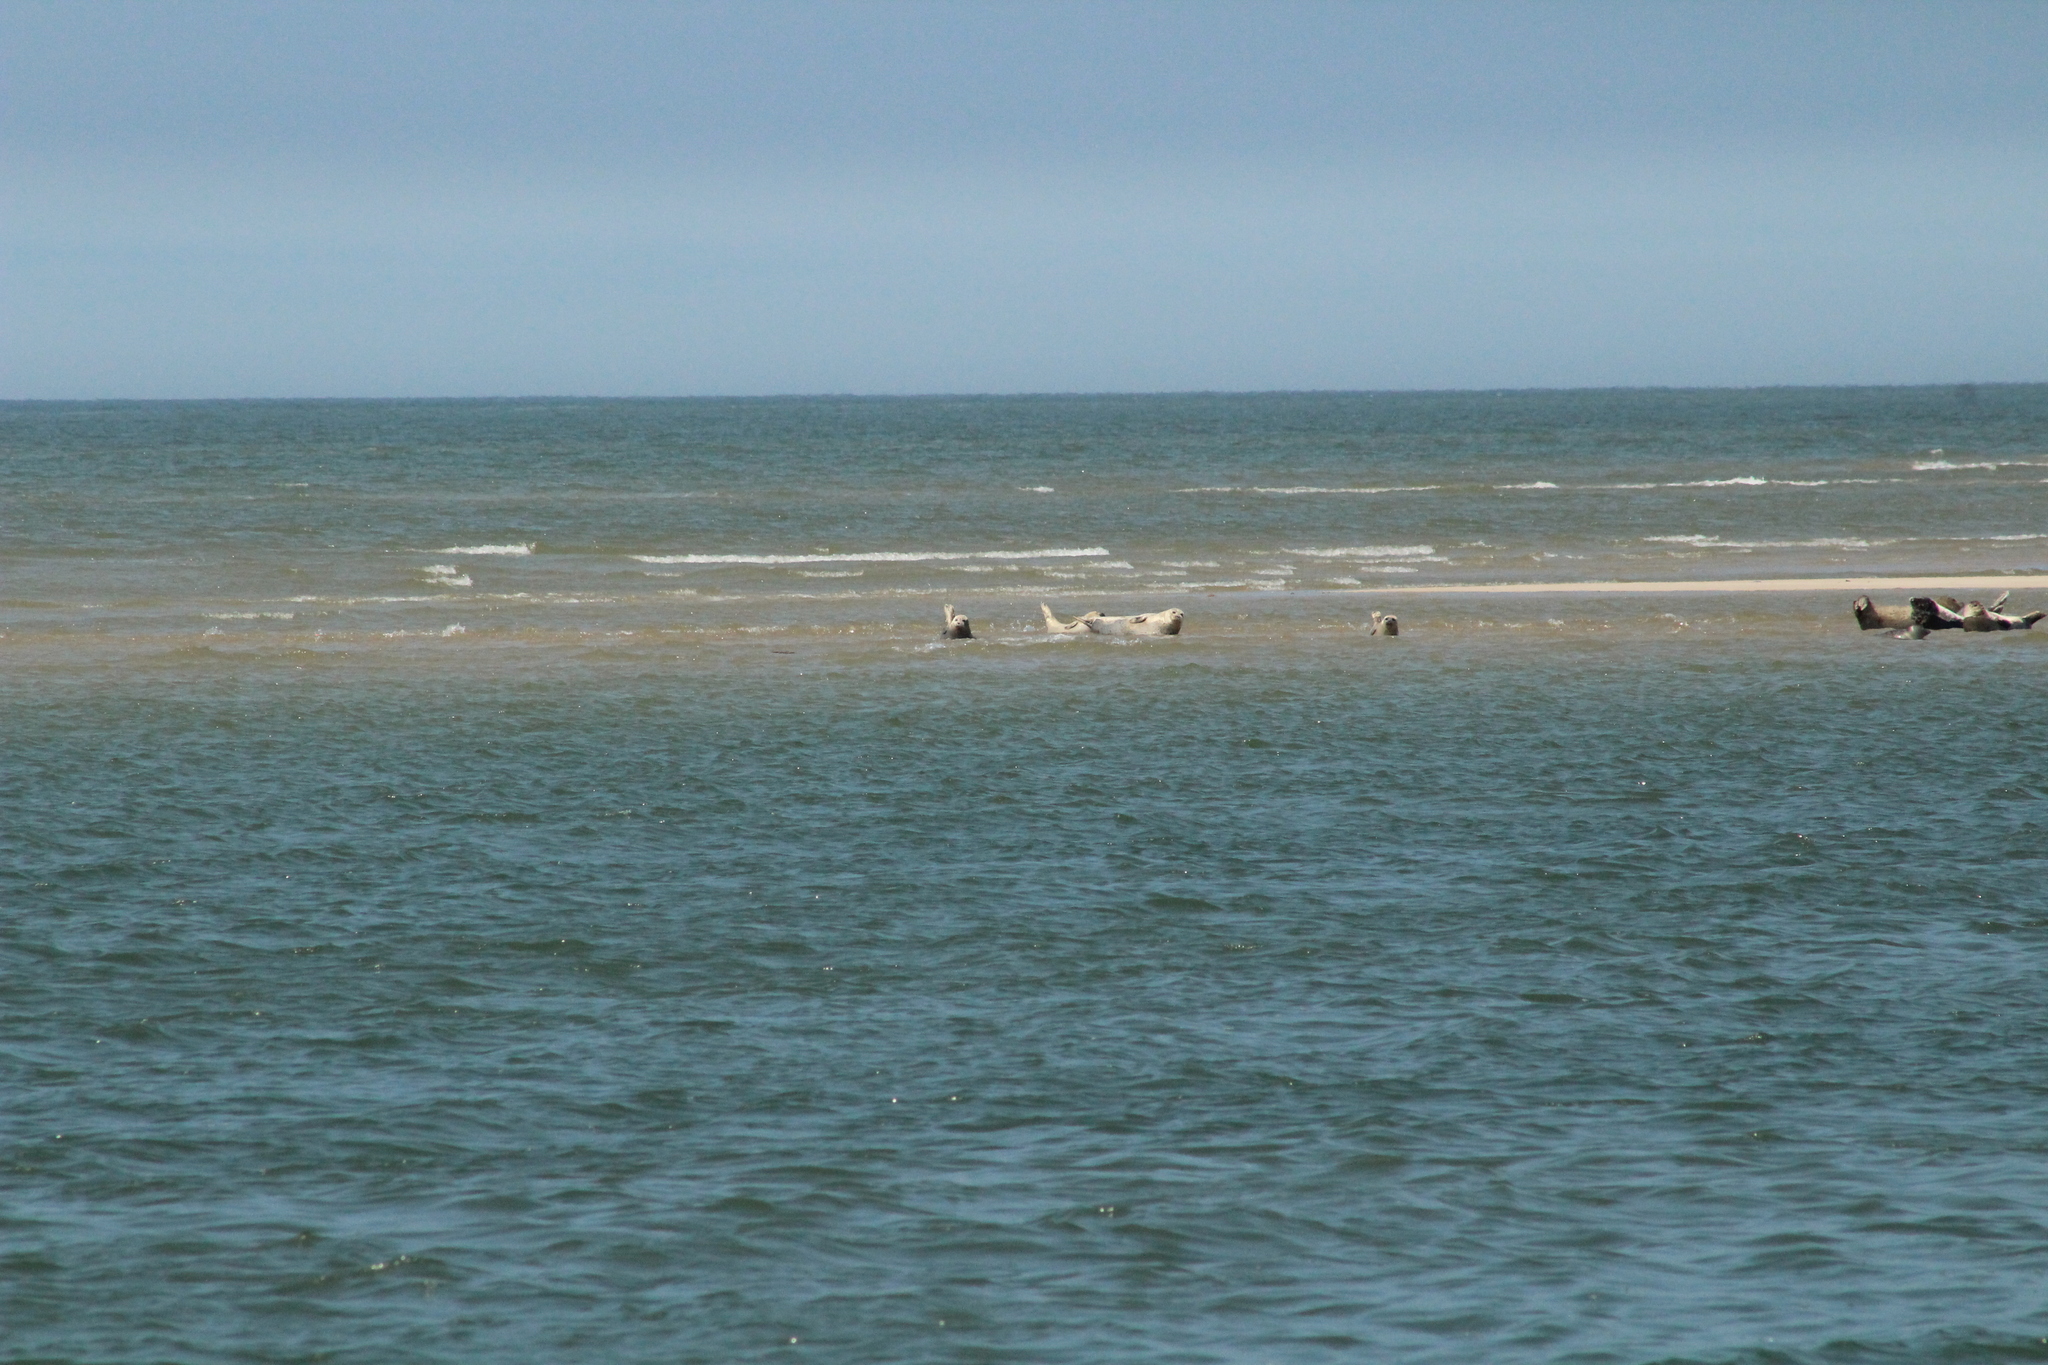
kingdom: Animalia
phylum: Chordata
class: Mammalia
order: Carnivora
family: Phocidae
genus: Phoca
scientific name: Phoca vitulina
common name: Harbor seal
